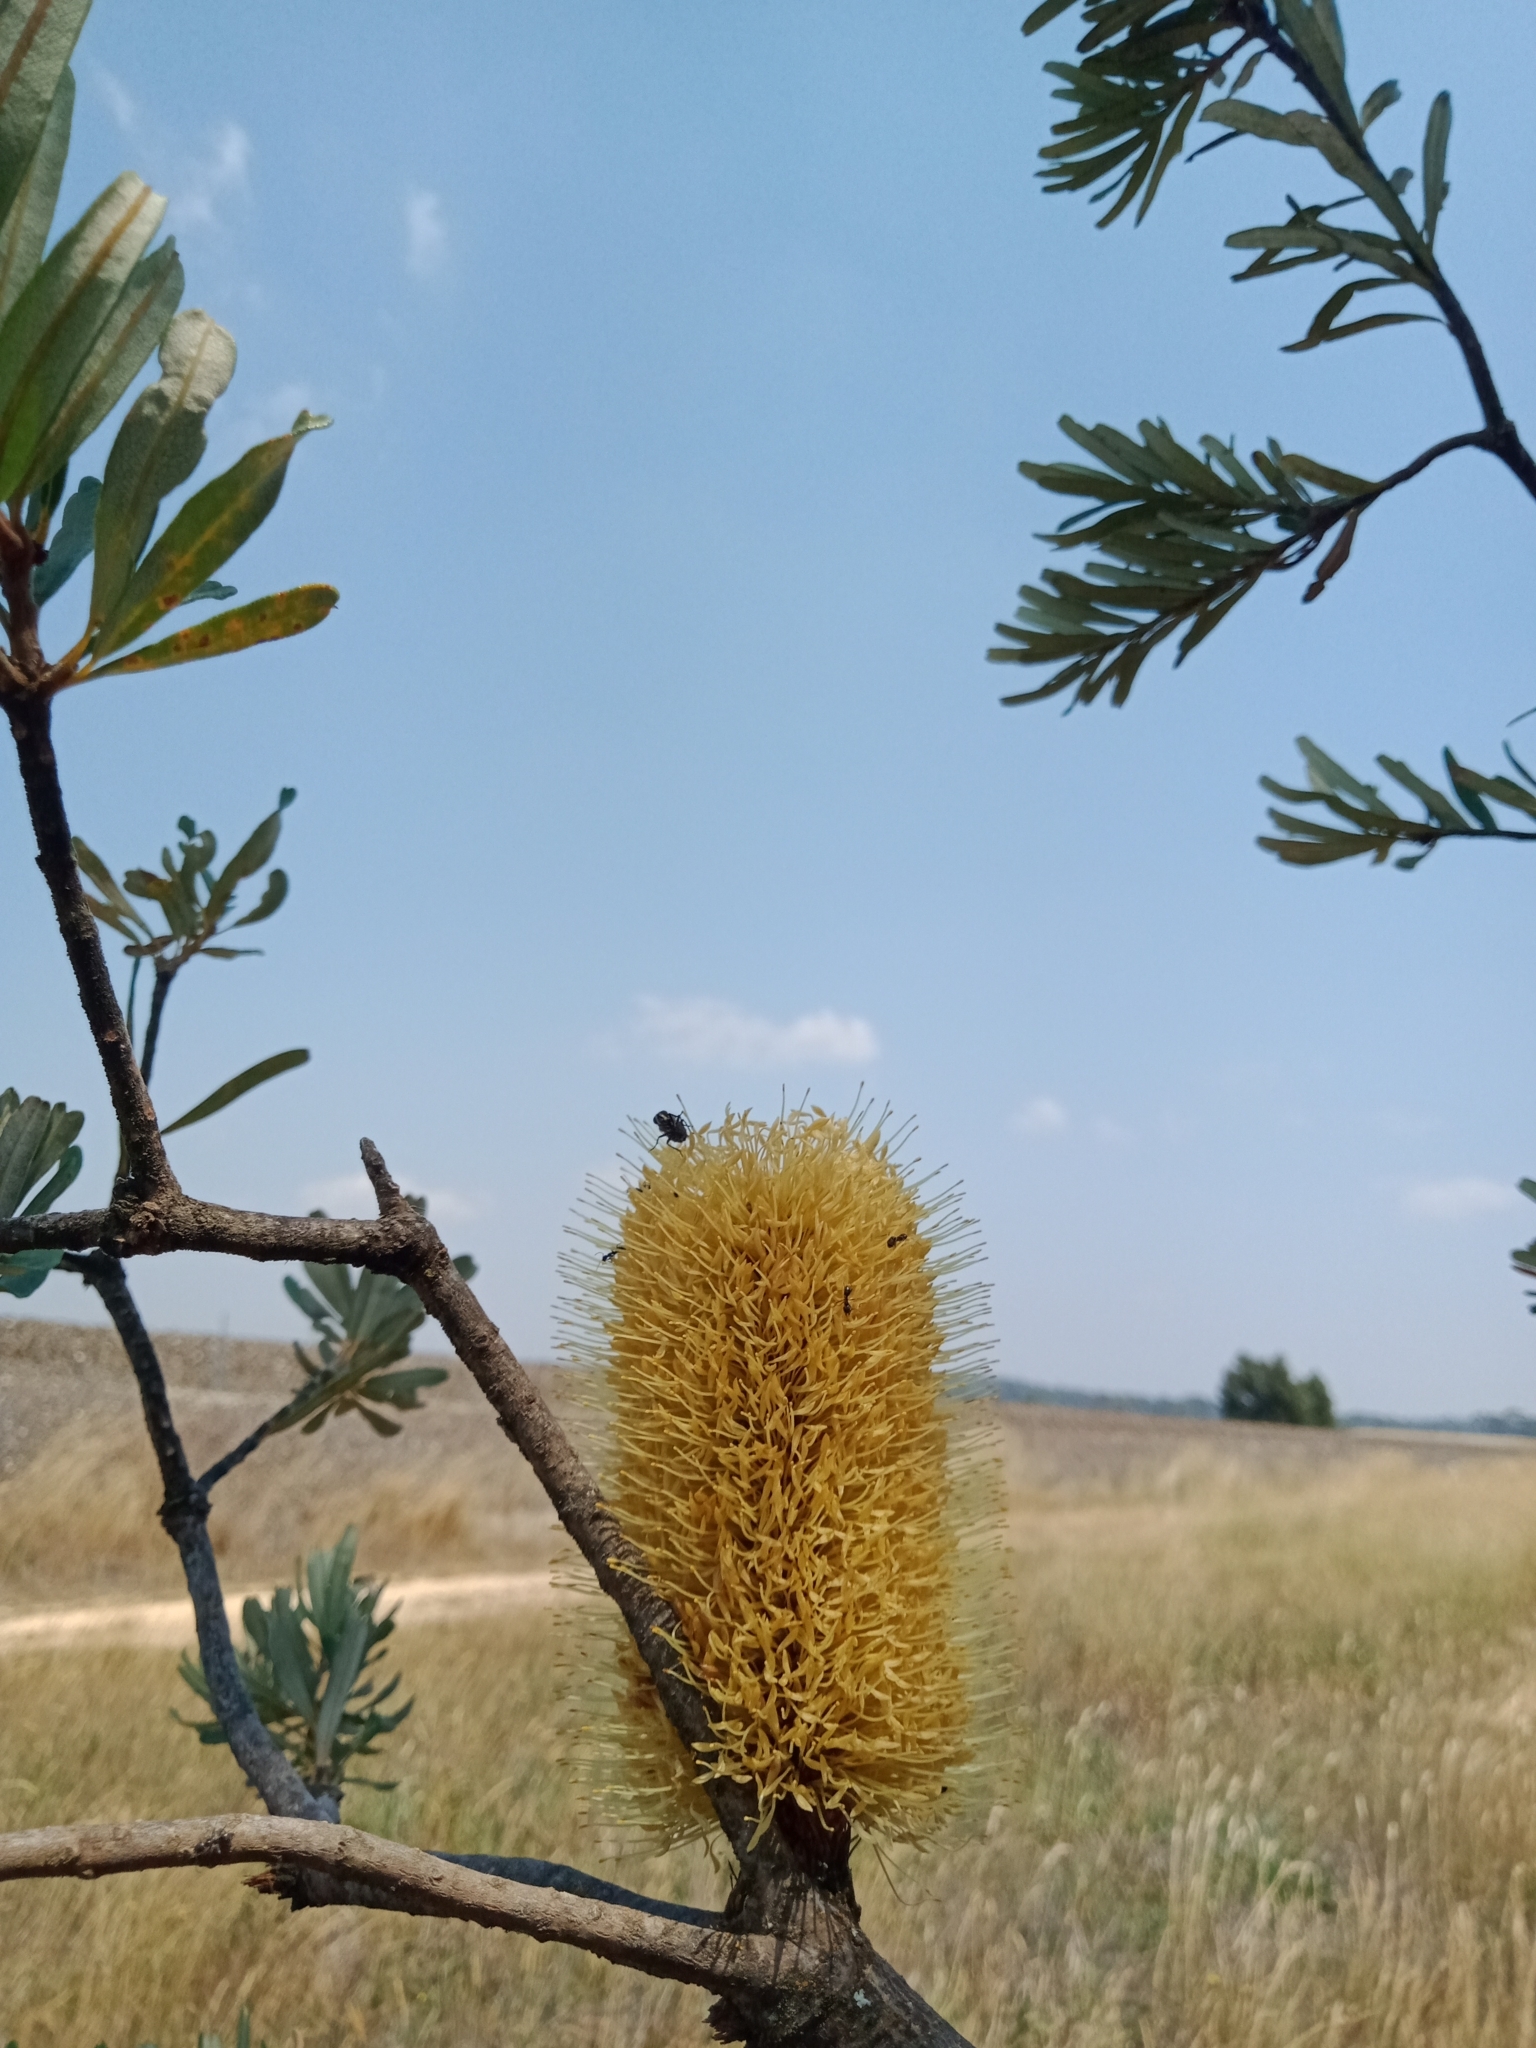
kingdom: Plantae
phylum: Tracheophyta
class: Magnoliopsida
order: Proteales
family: Proteaceae
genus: Banksia
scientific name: Banksia marginata
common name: Silver banksia
